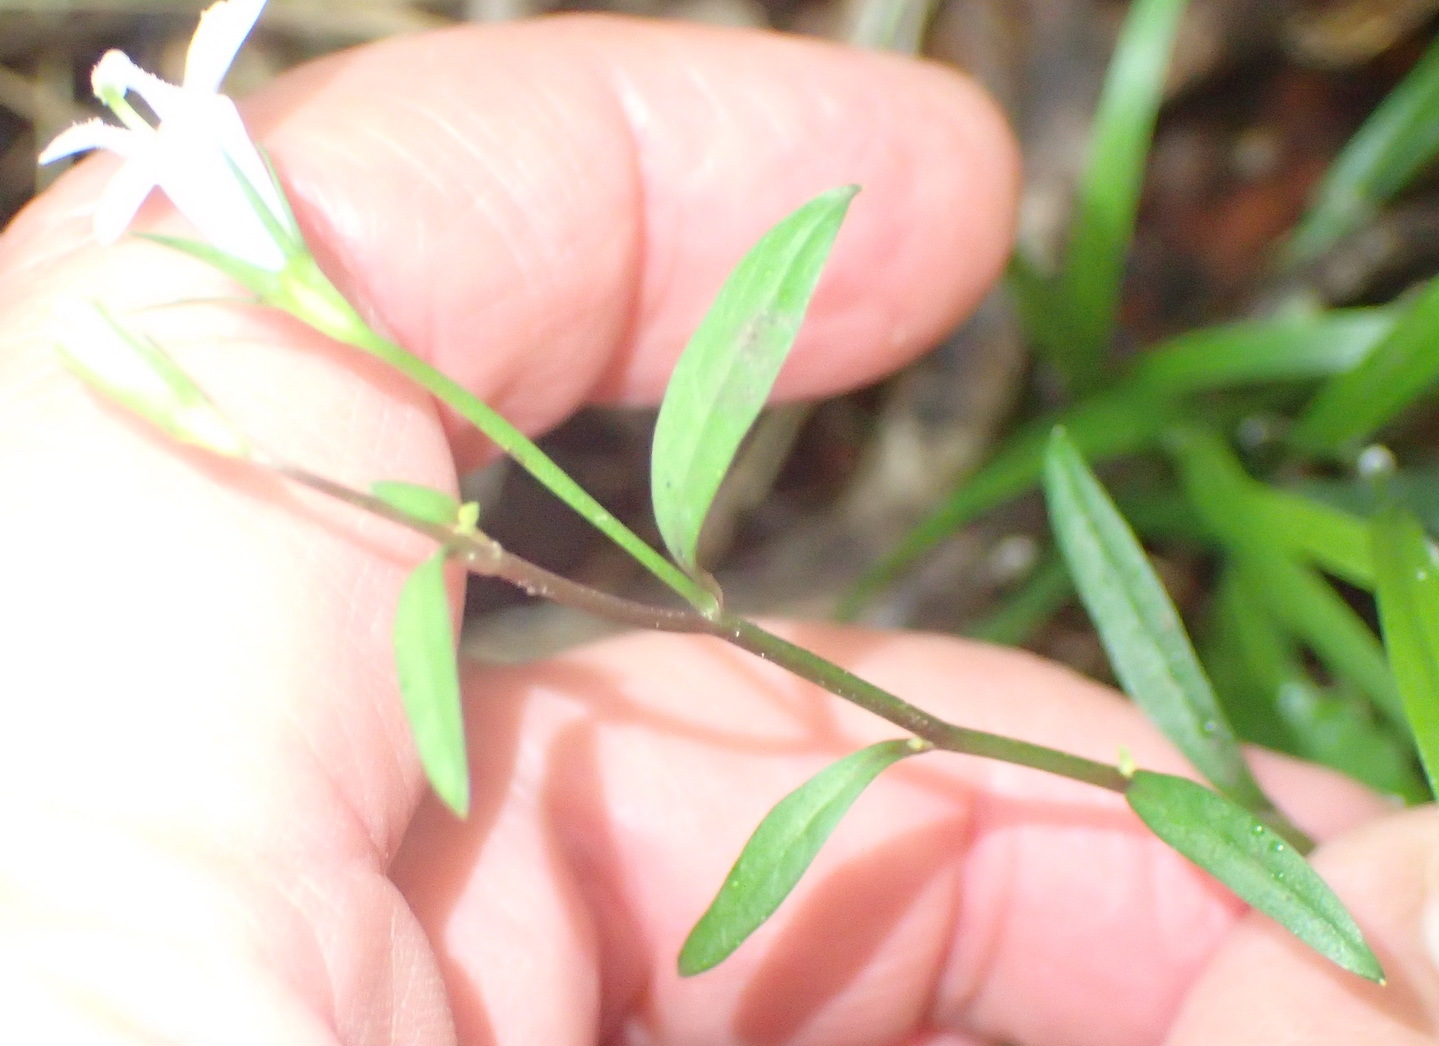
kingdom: Plantae
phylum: Tracheophyta
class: Magnoliopsida
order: Asterales
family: Campanulaceae
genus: Lobelia
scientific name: Lobelia cuneifolia
